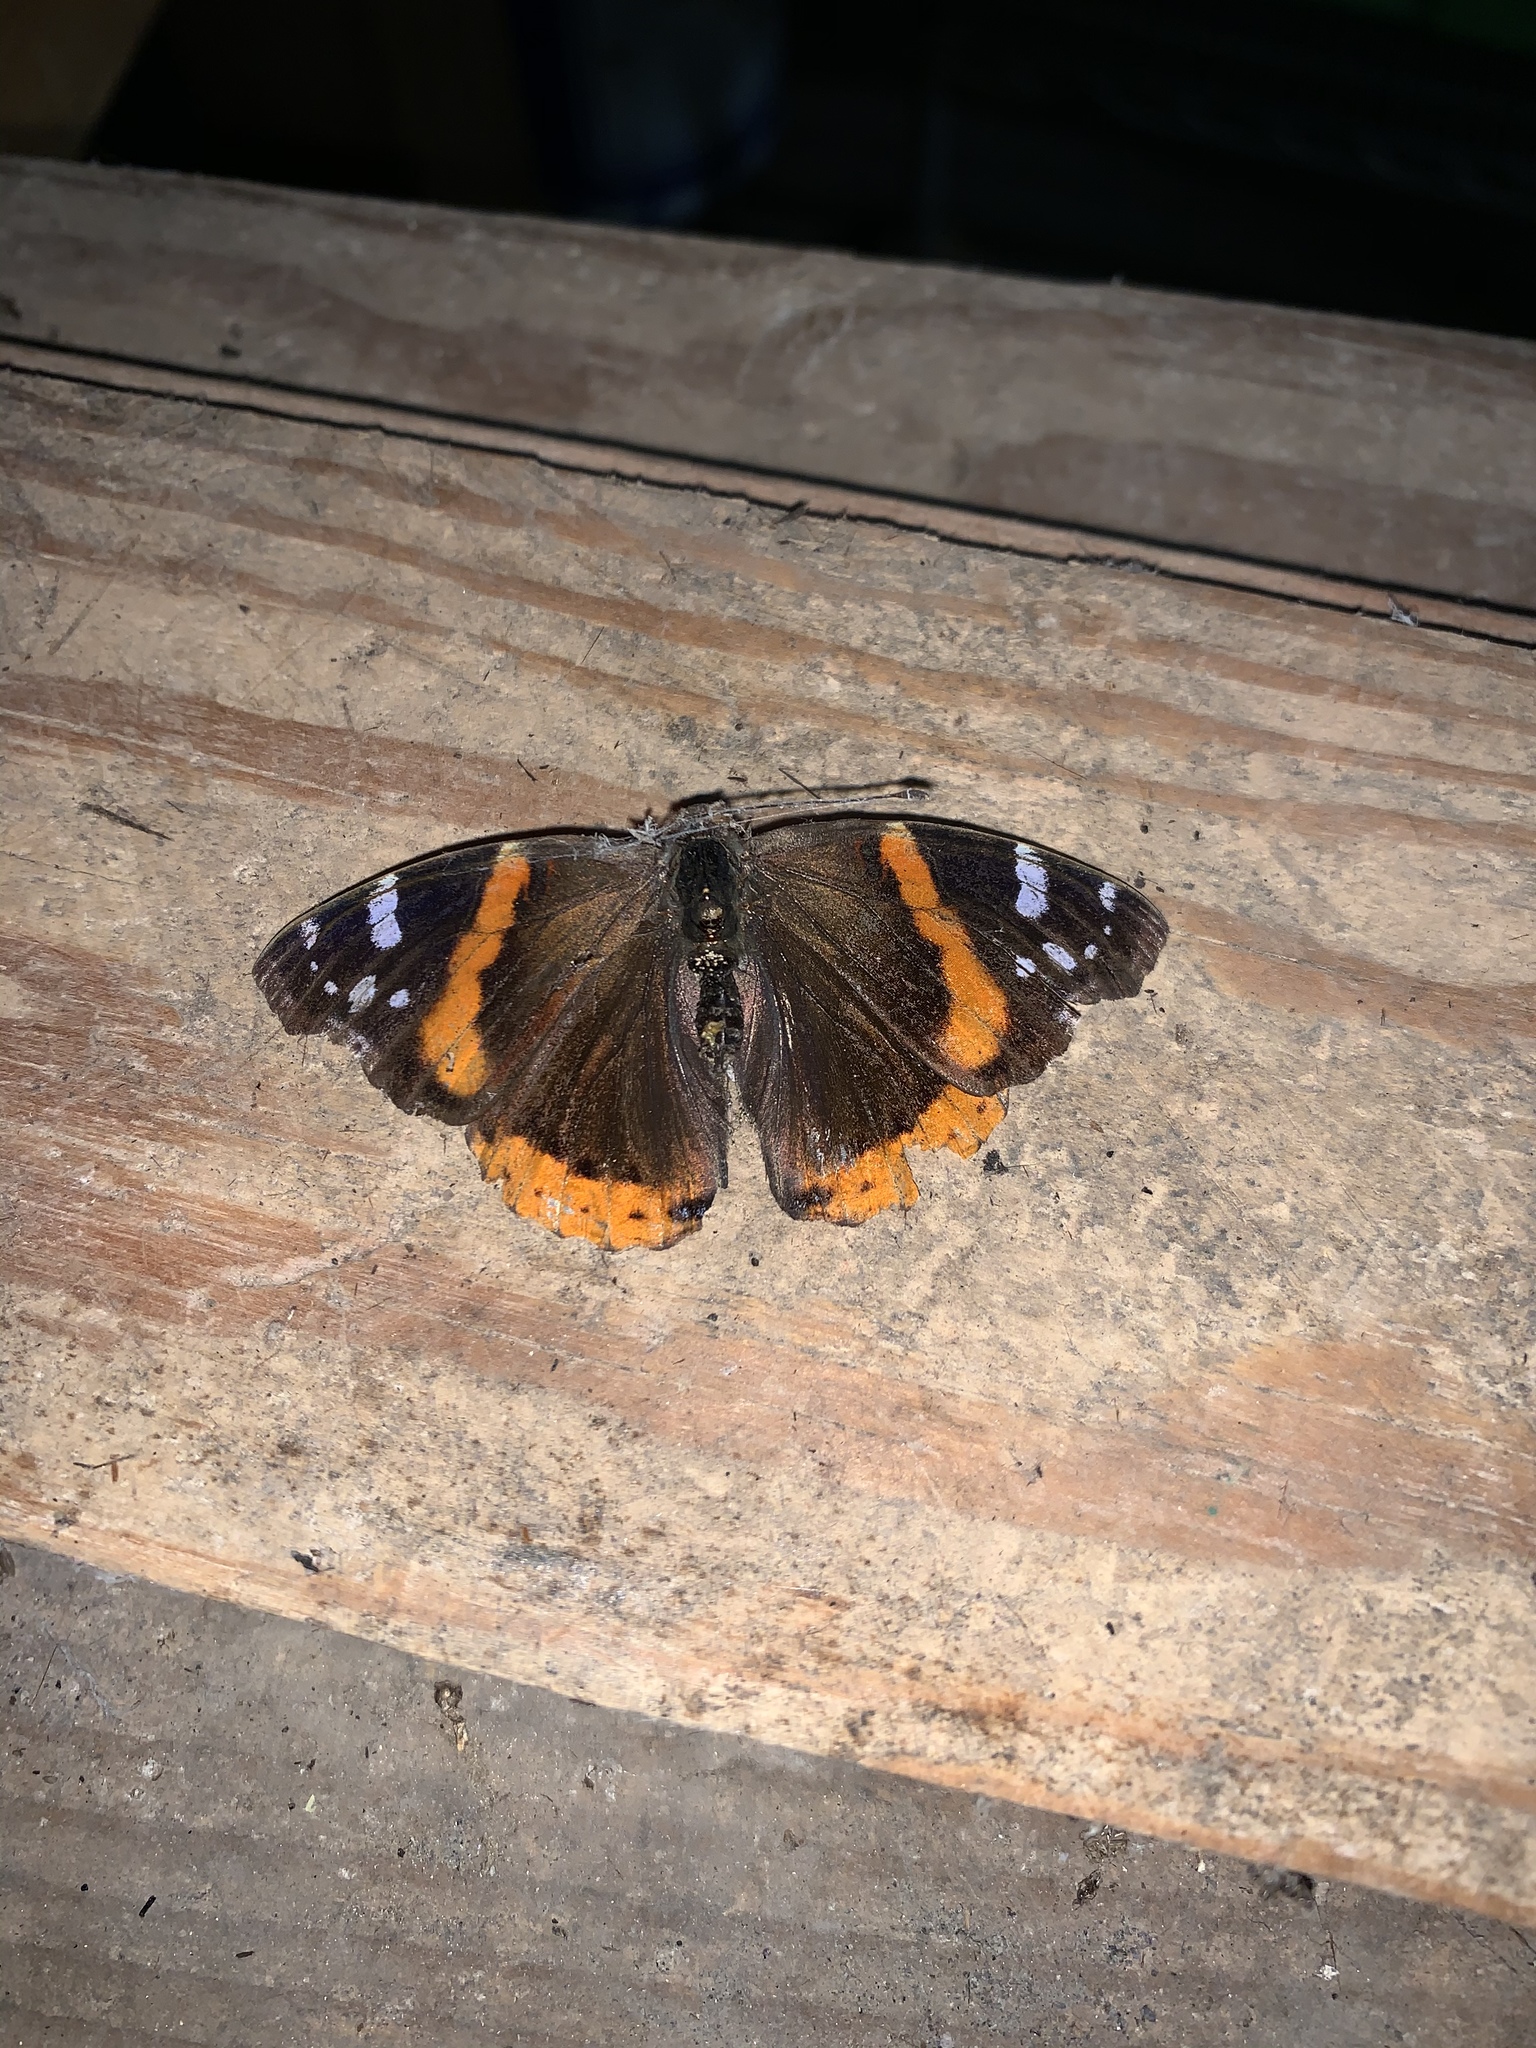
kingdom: Animalia
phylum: Arthropoda
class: Insecta
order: Lepidoptera
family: Nymphalidae
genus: Vanessa
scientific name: Vanessa atalanta
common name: Red admiral
